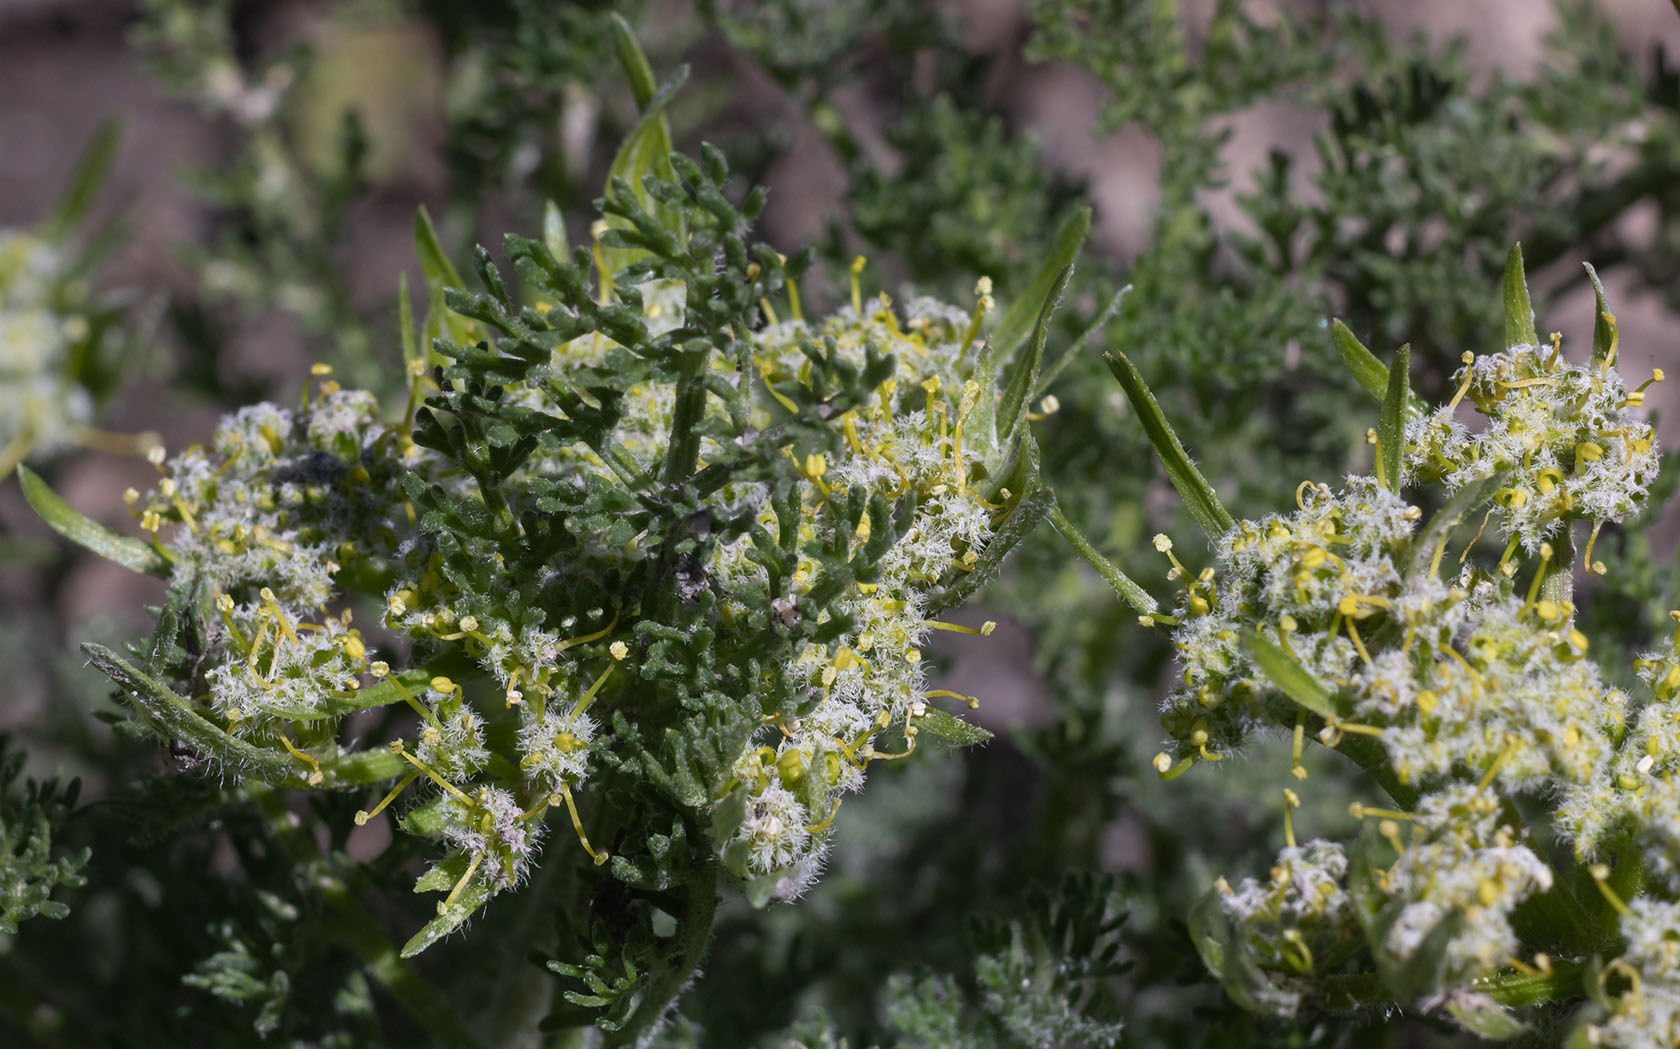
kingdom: Plantae
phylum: Tracheophyta
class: Magnoliopsida
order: Apiales
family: Apiaceae
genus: Lomatium
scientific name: Lomatium dasycarpum
